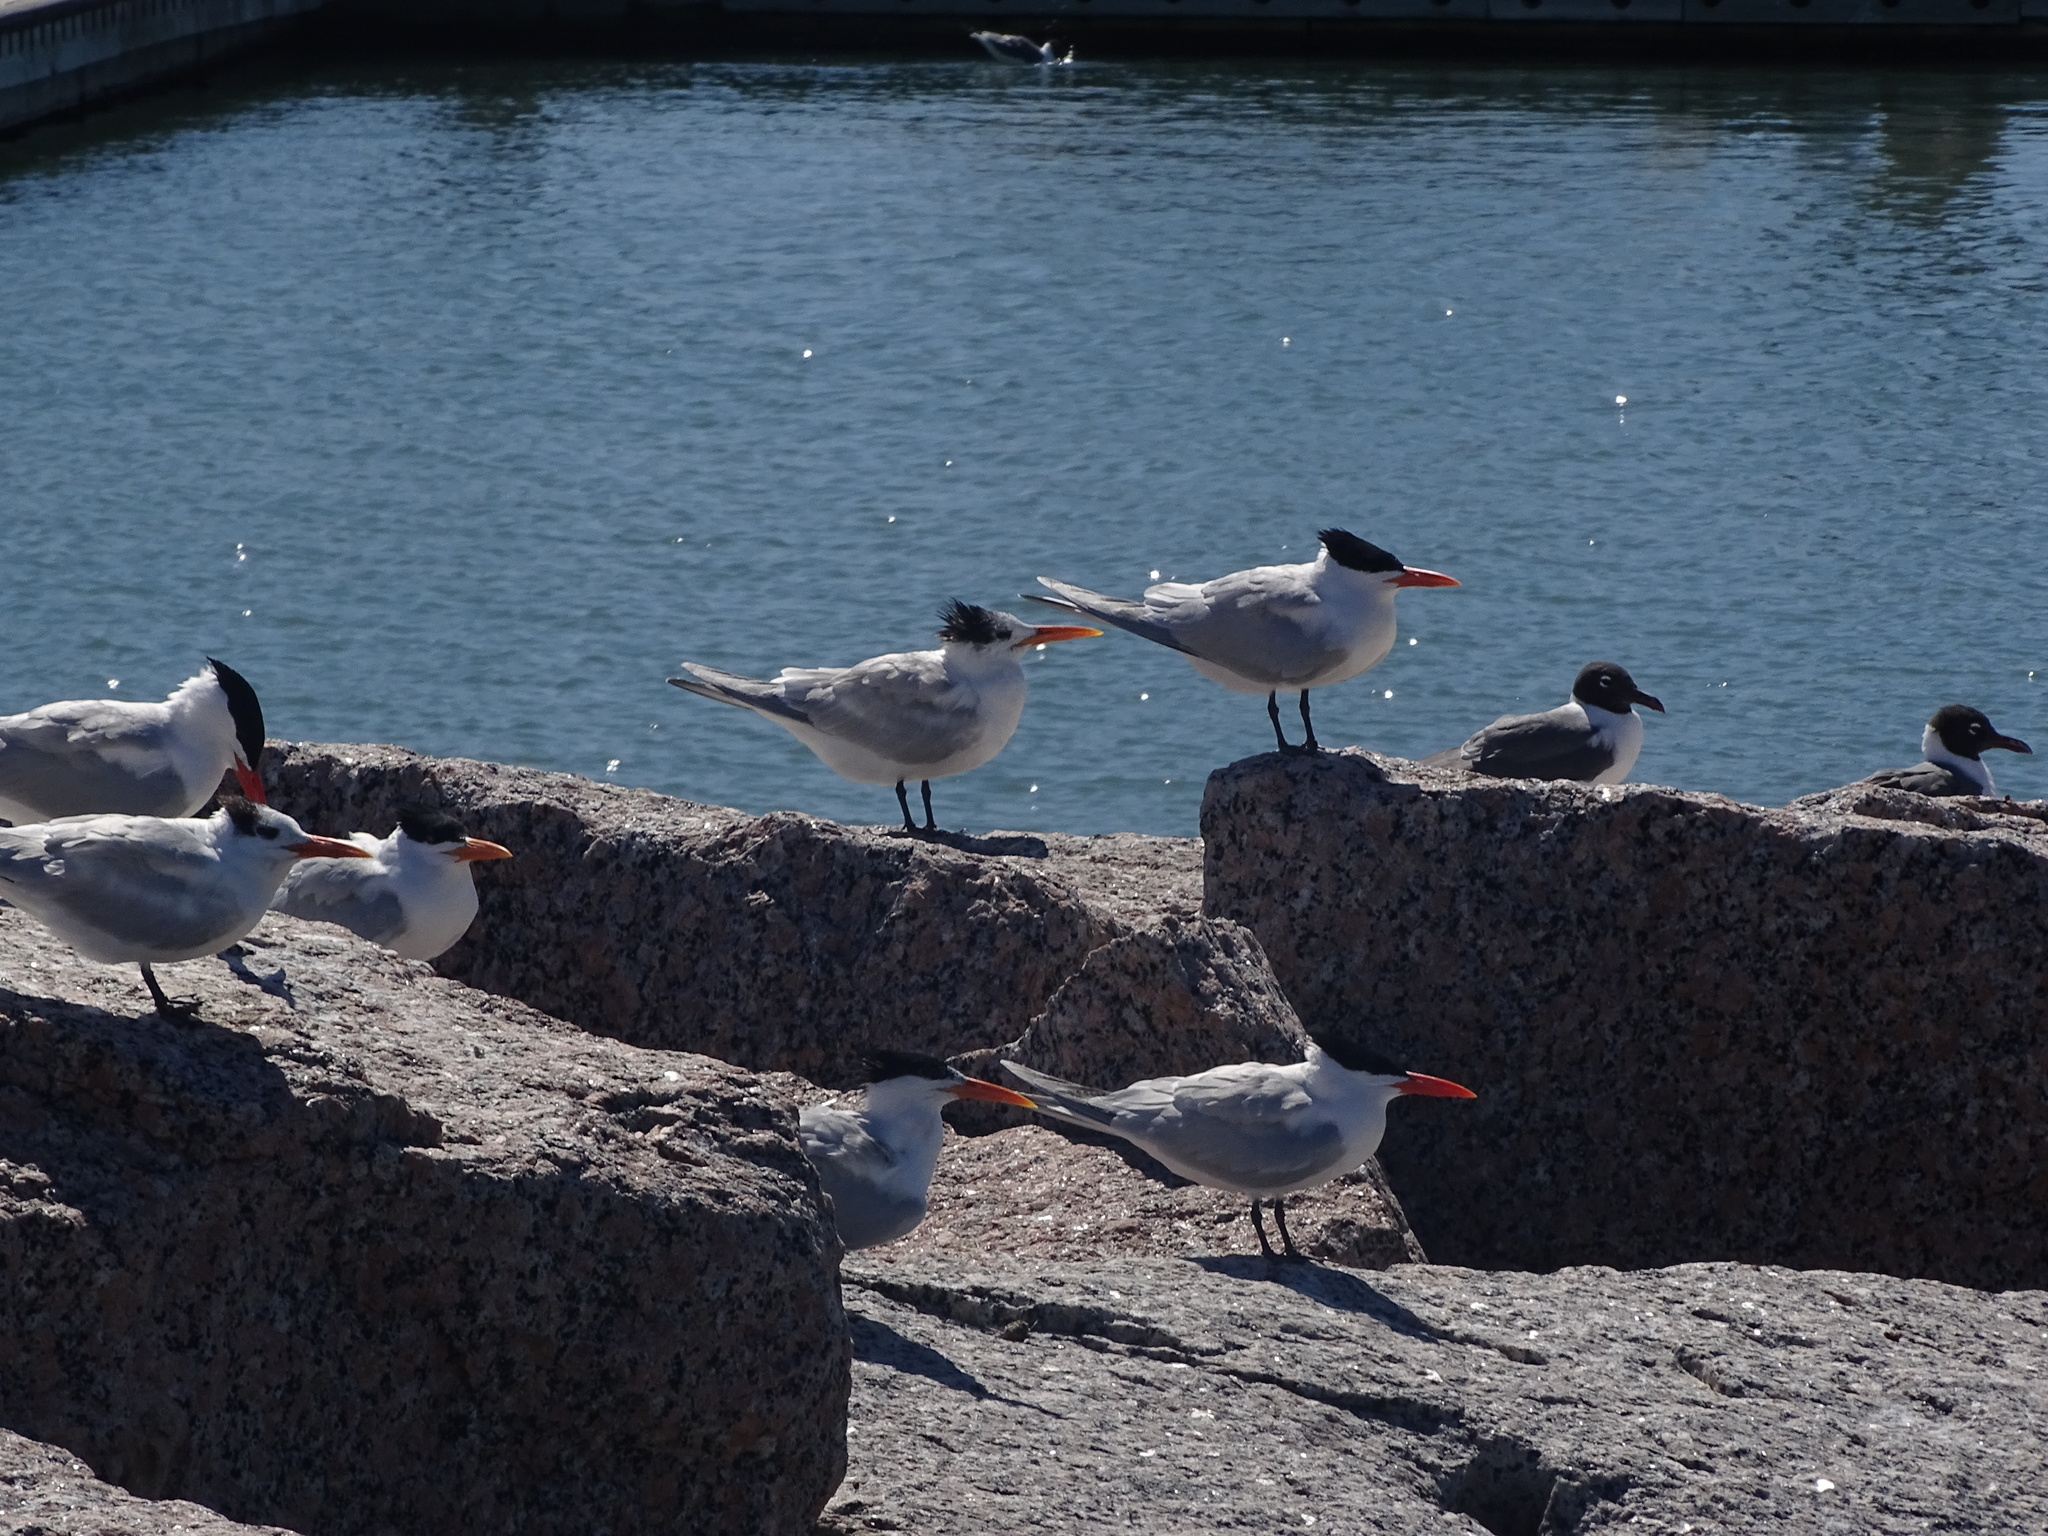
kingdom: Animalia
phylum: Chordata
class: Aves
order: Charadriiformes
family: Laridae
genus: Thalasseus
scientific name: Thalasseus maximus
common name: Royal tern
